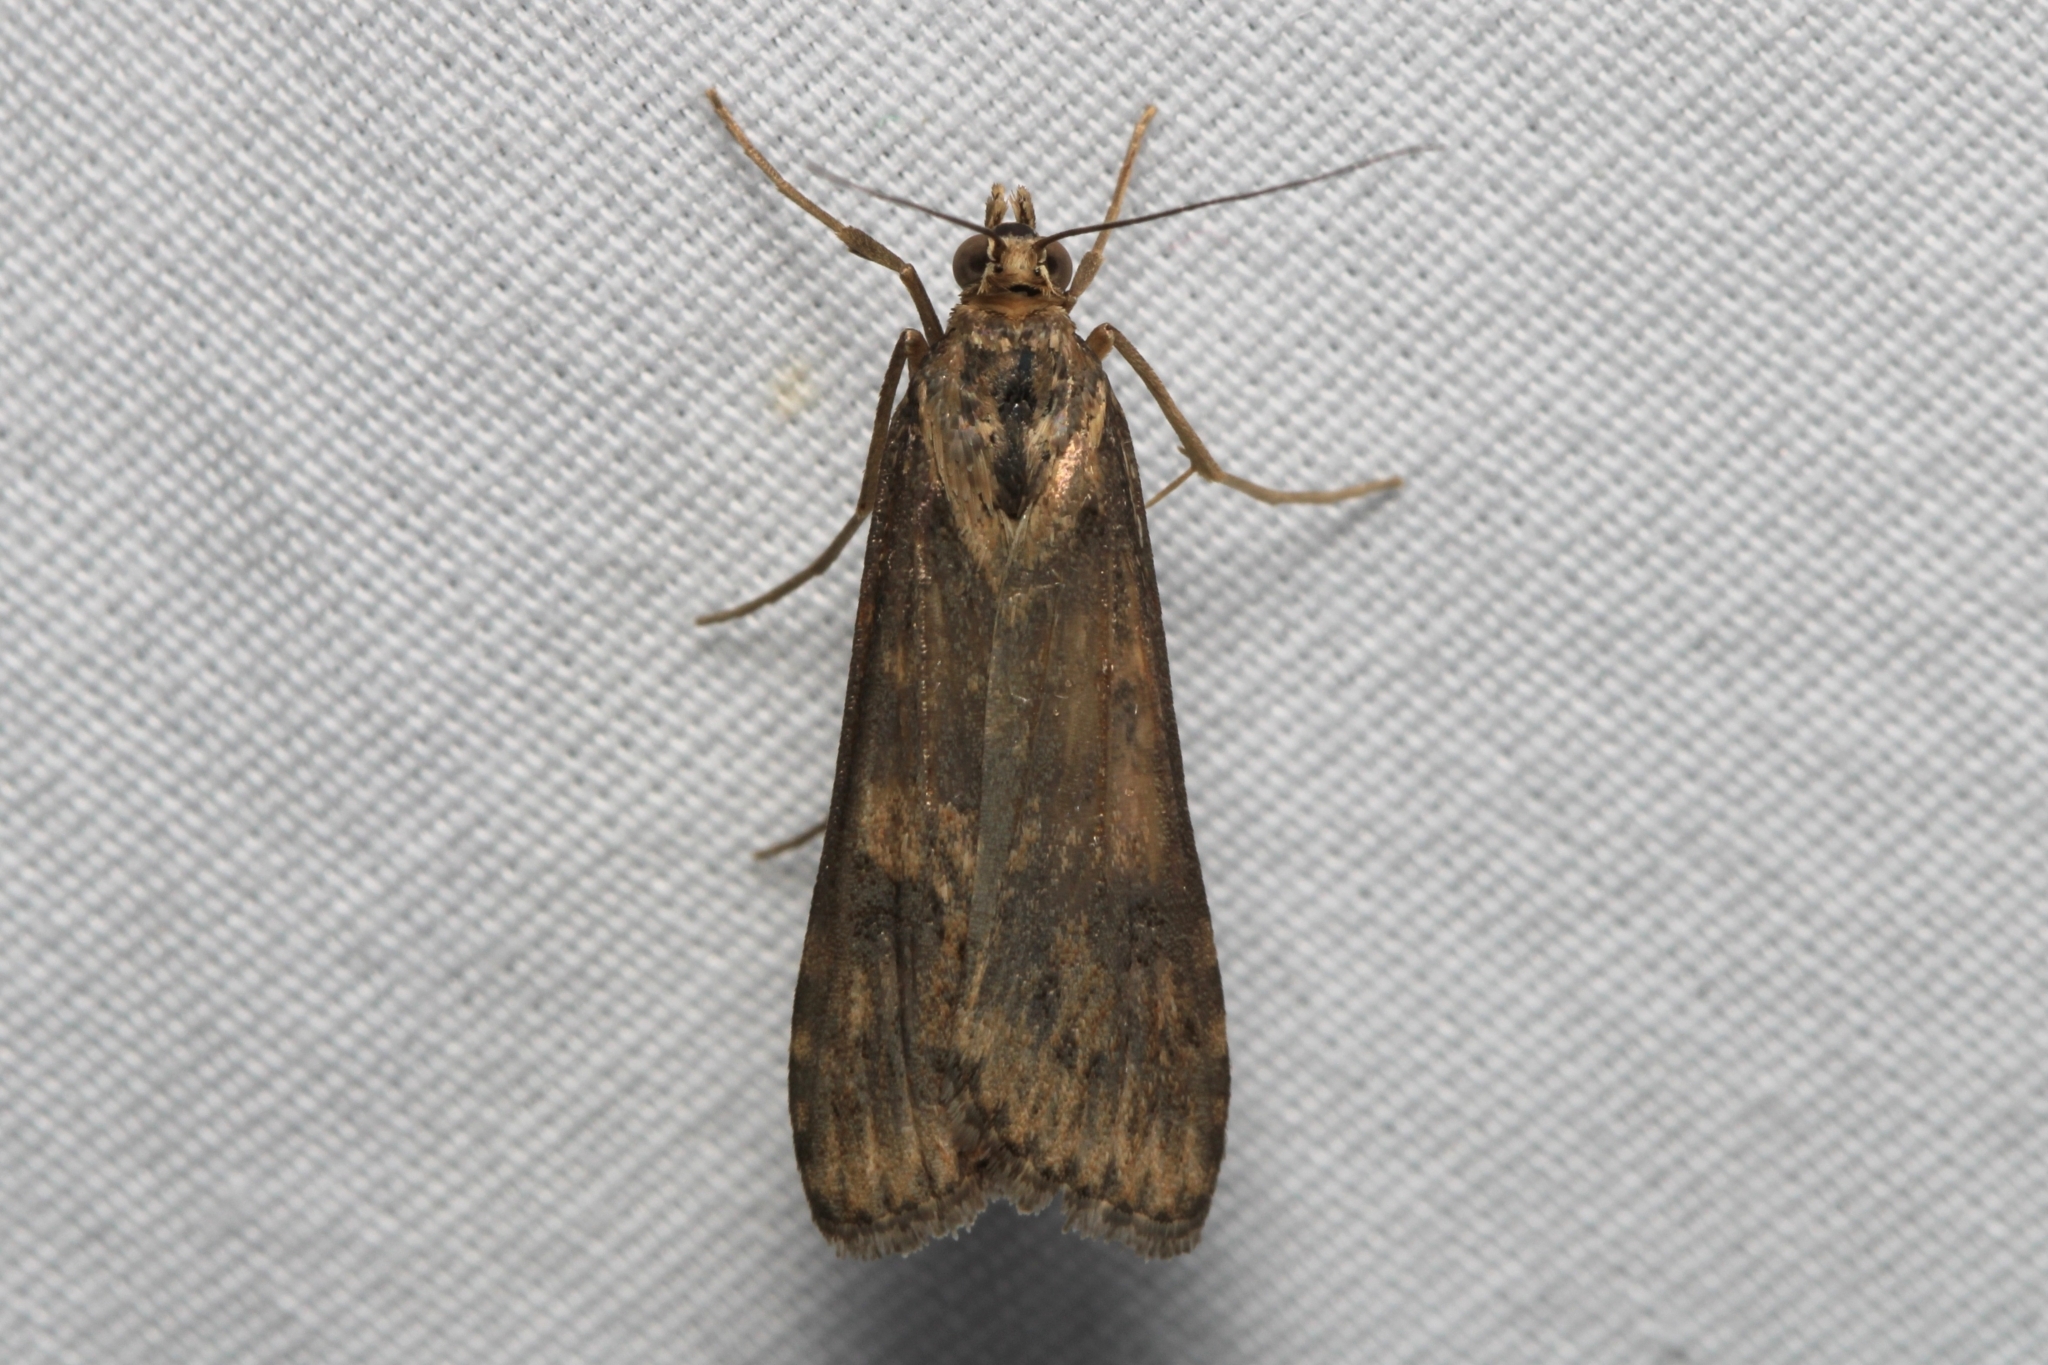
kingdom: Animalia
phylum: Arthropoda
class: Insecta
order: Lepidoptera
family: Crambidae
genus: Nomophila
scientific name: Nomophila nearctica
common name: American rush veneer
